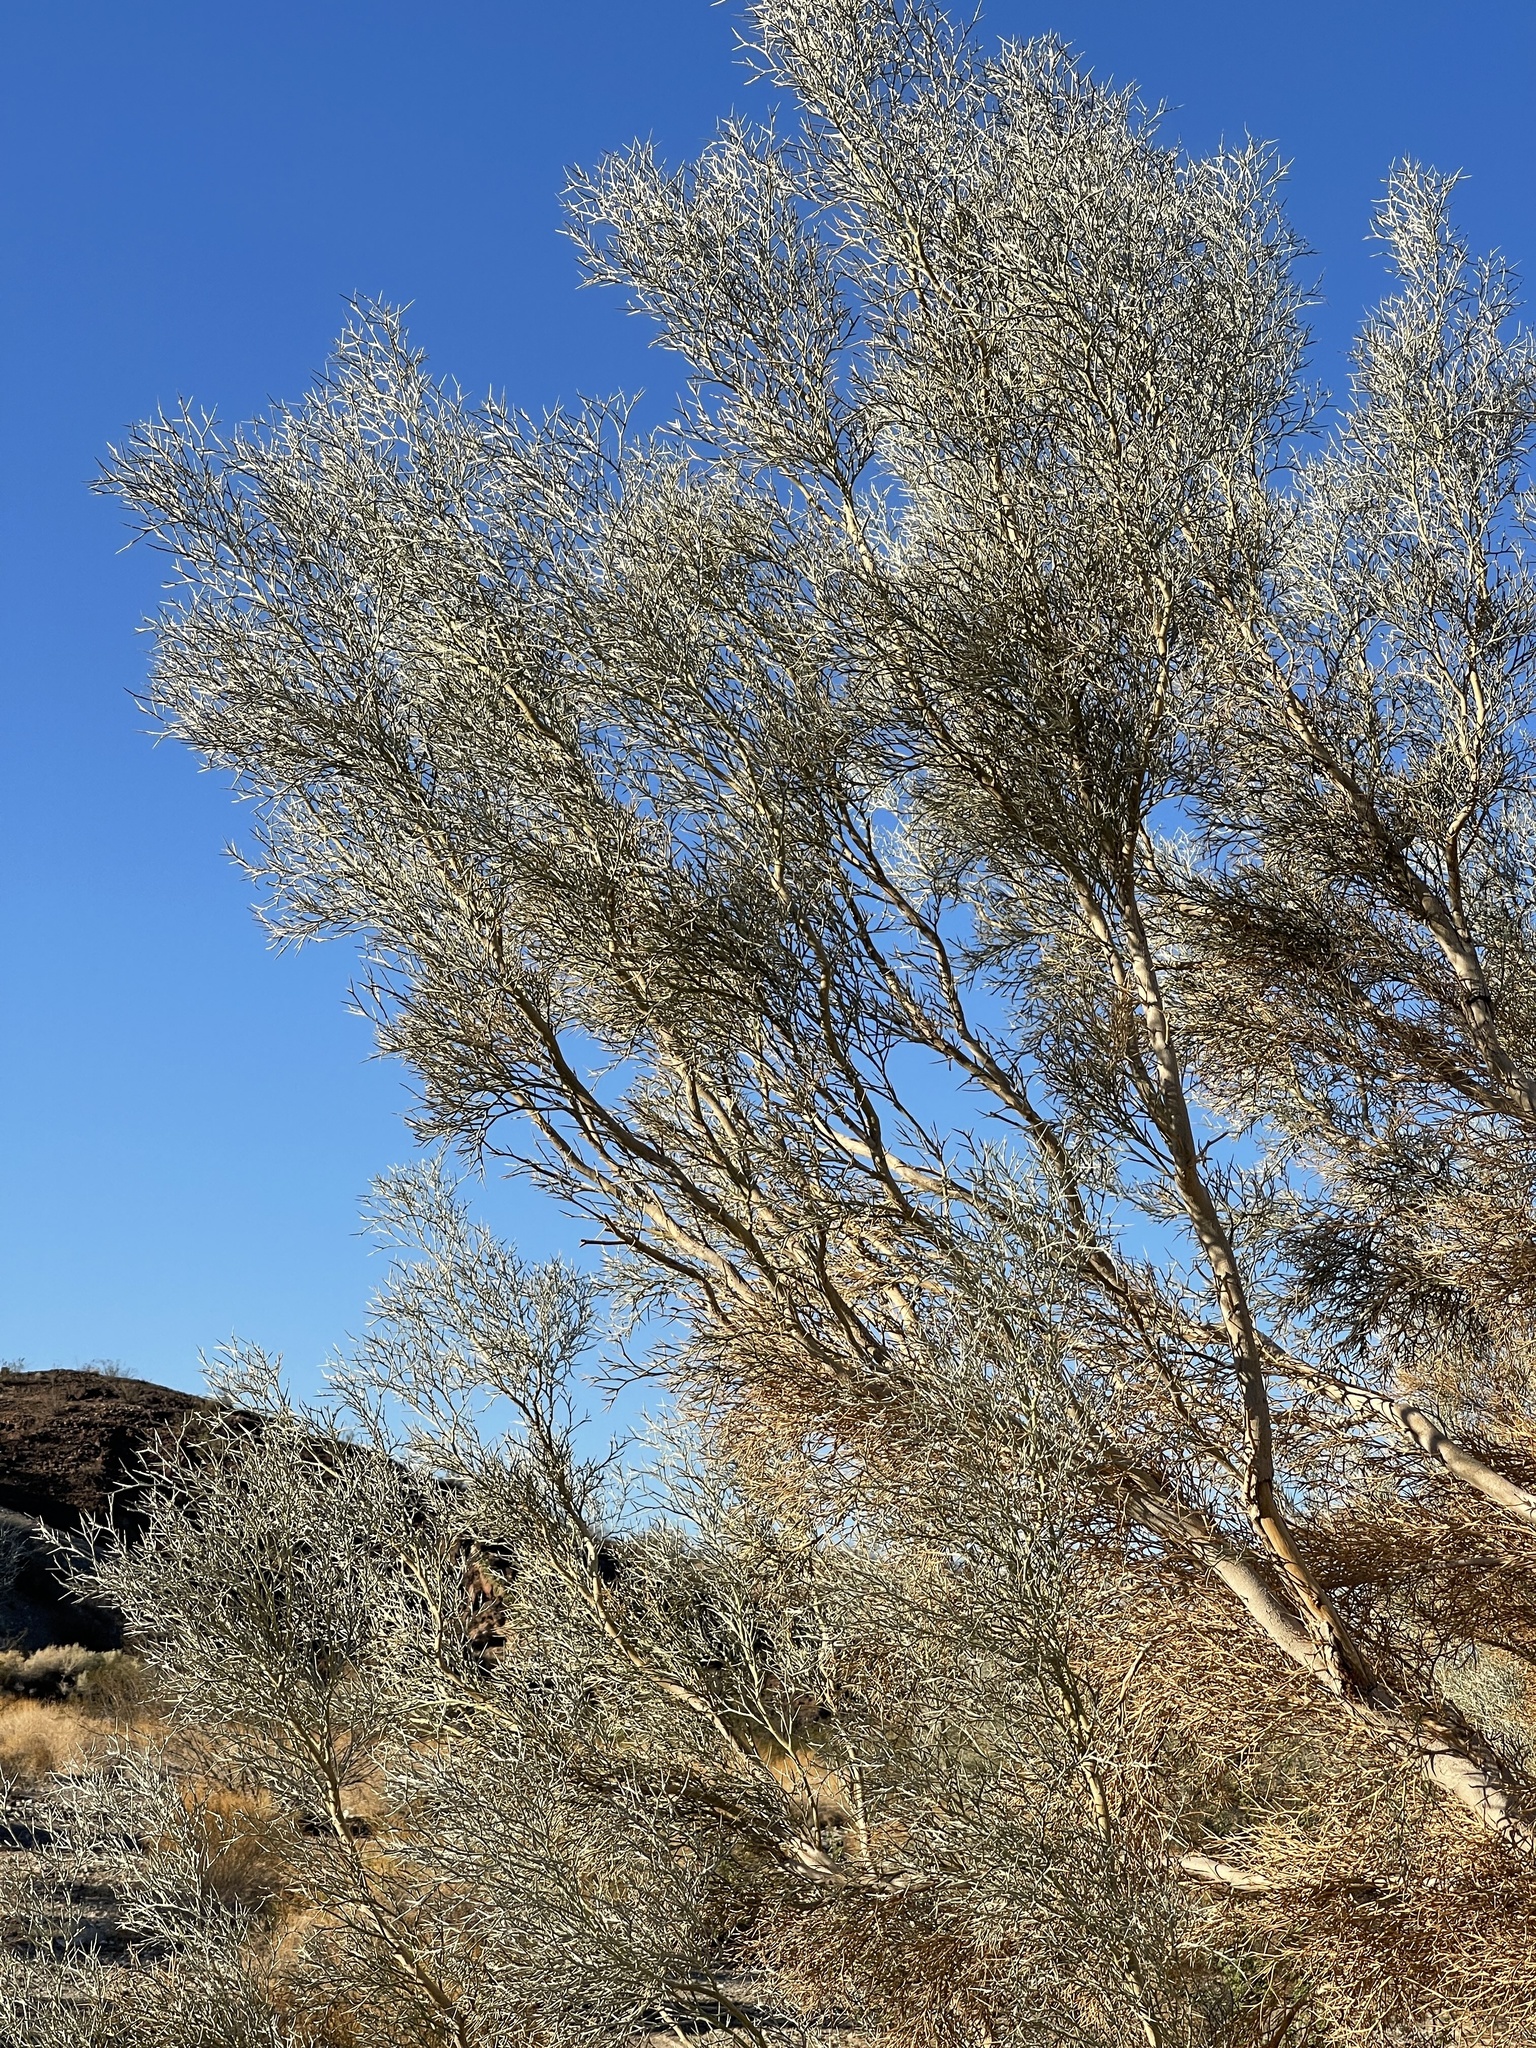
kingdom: Plantae
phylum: Tracheophyta
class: Magnoliopsida
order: Fabales
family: Fabaceae
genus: Psorothamnus
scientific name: Psorothamnus spinosus
